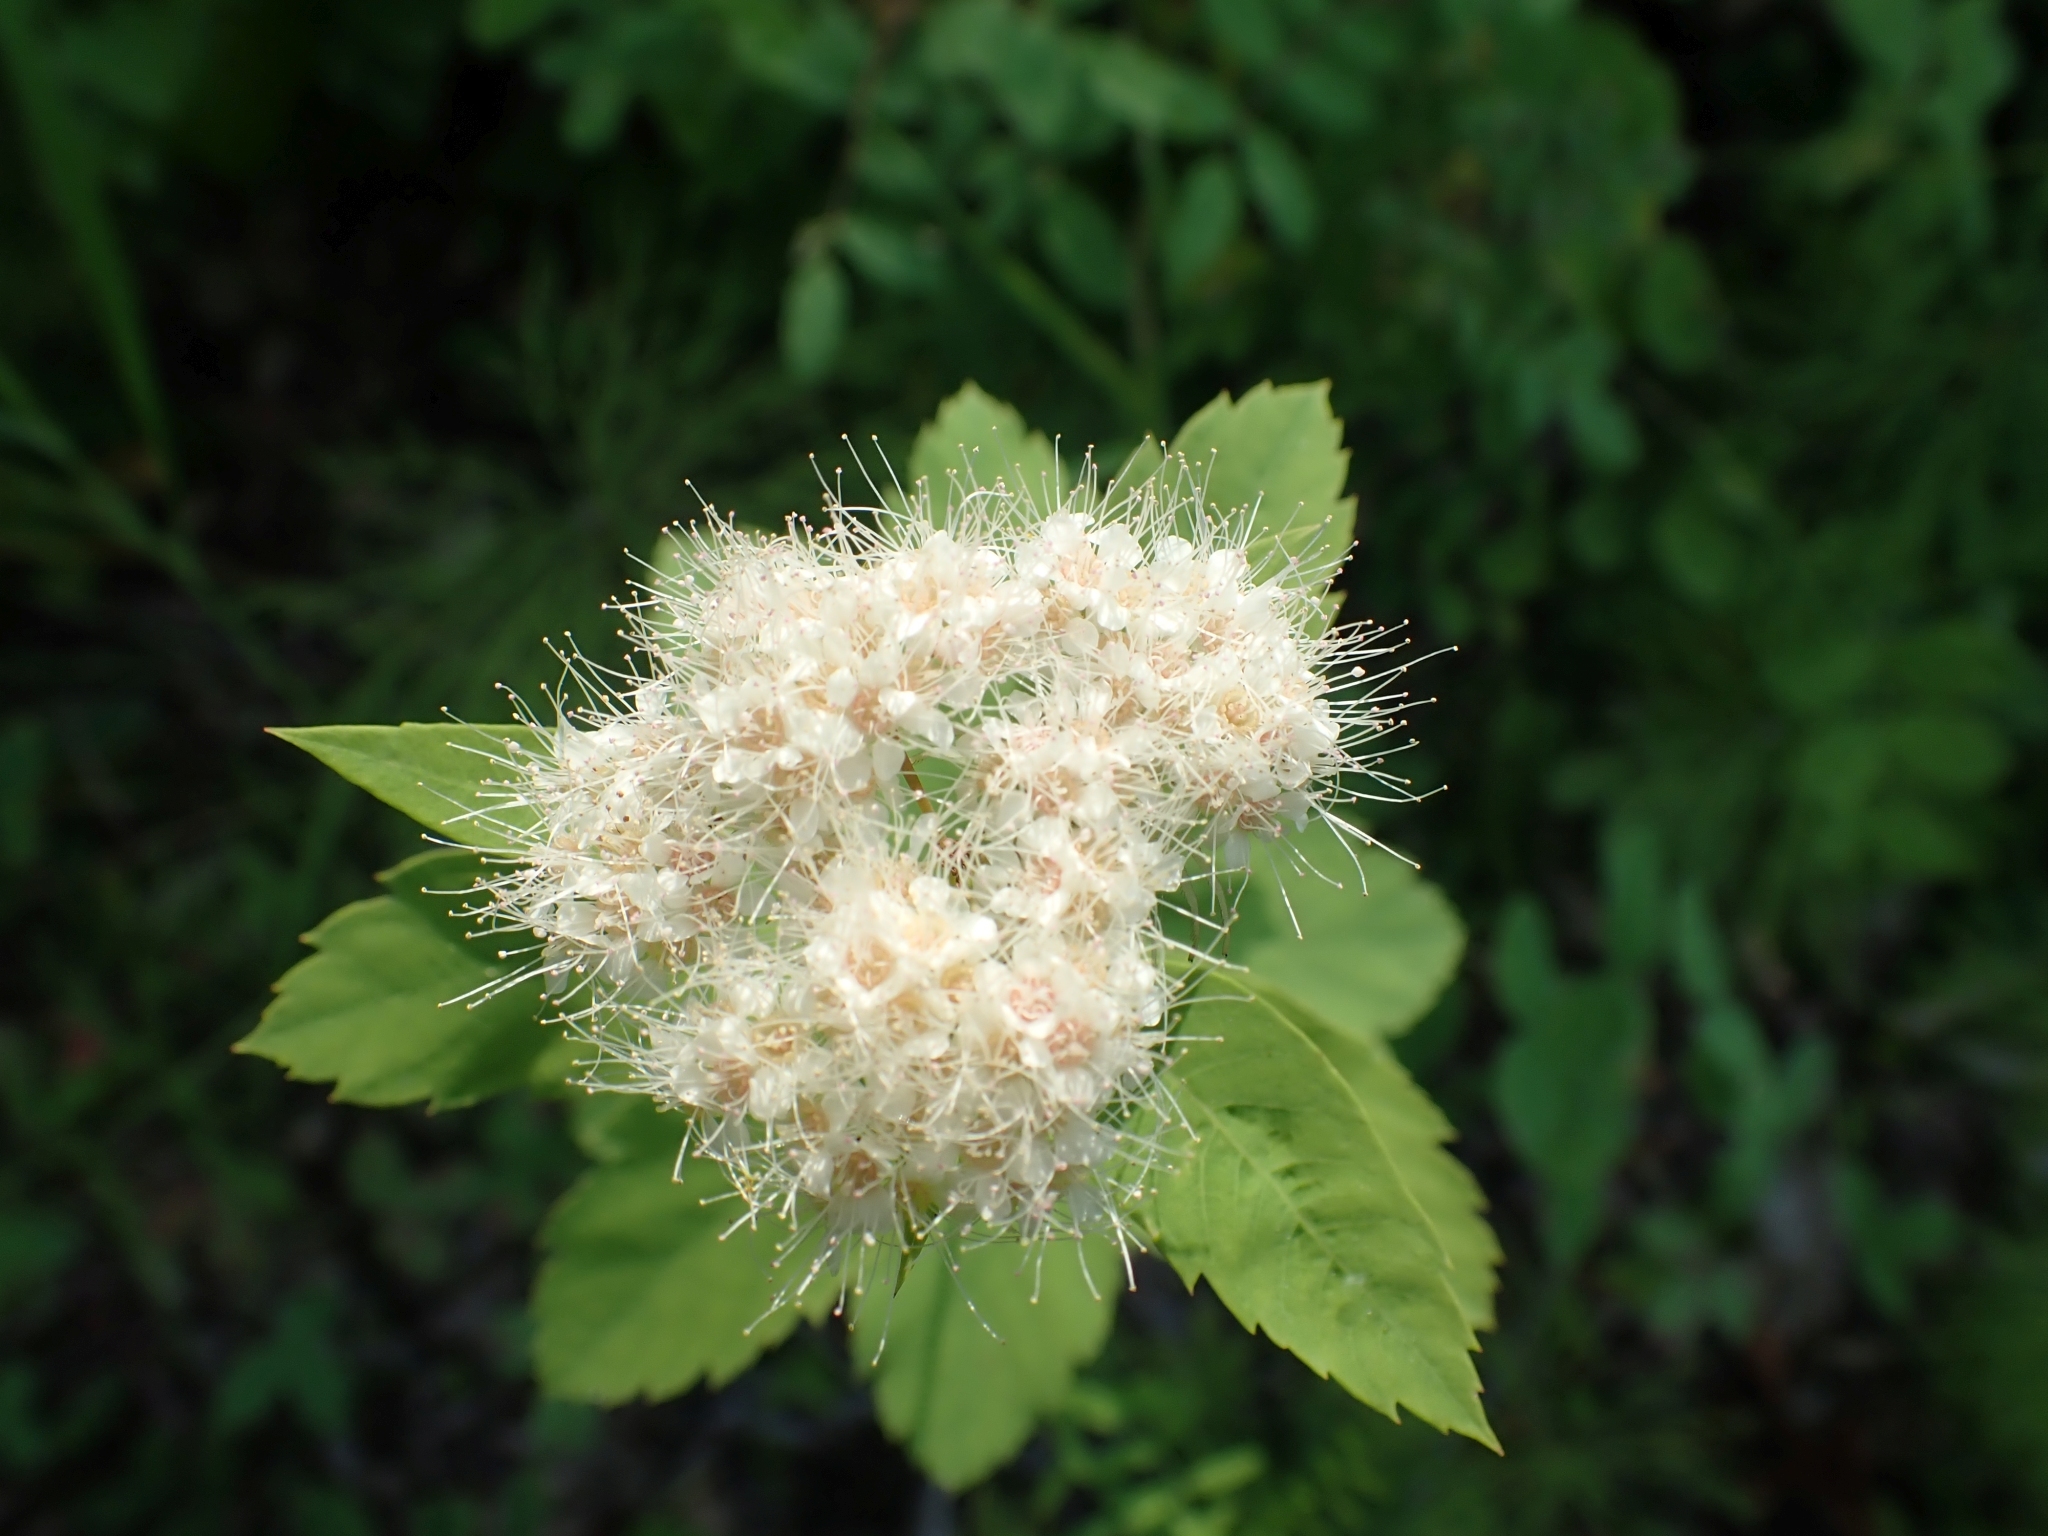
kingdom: Plantae
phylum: Tracheophyta
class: Magnoliopsida
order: Rosales
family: Rosaceae
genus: Spiraea
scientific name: Spiraea lucida
